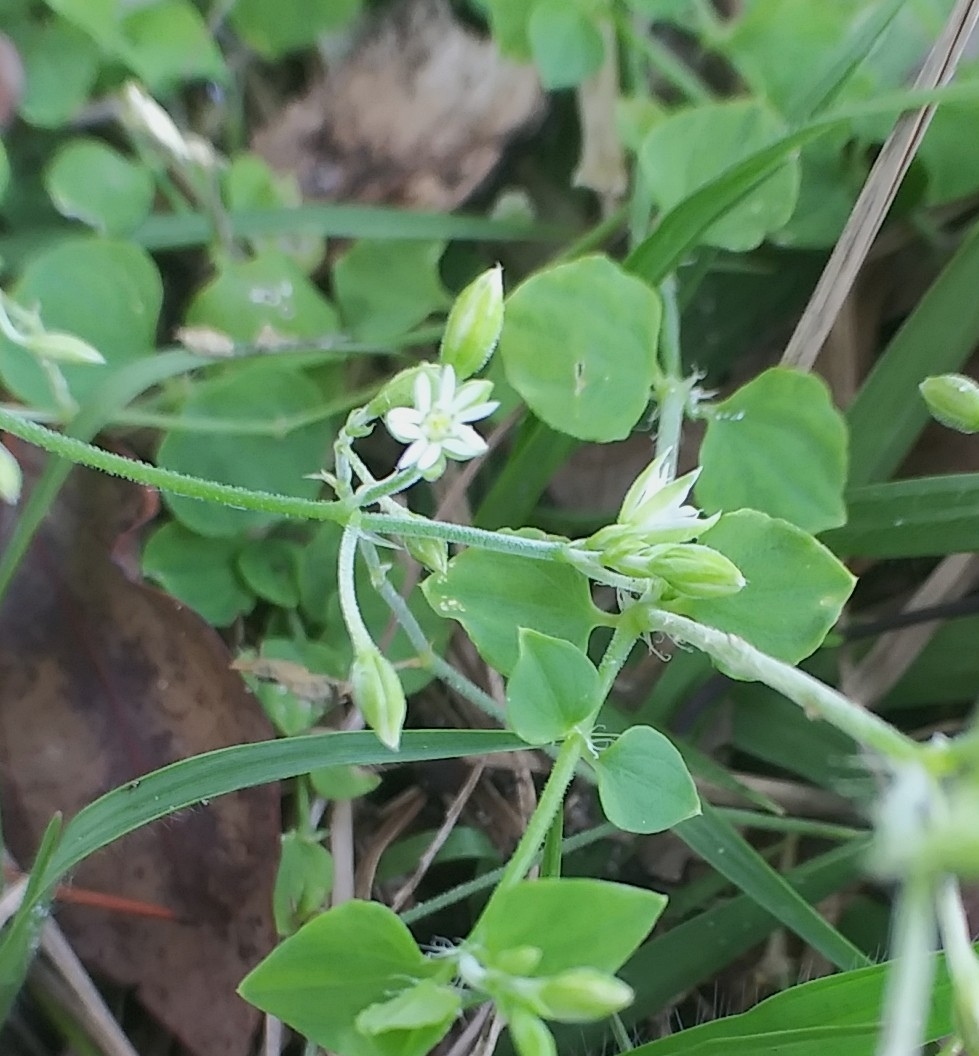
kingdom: Plantae
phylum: Tracheophyta
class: Magnoliopsida
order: Caryophyllales
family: Caryophyllaceae
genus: Drymaria
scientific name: Drymaria cordata
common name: Whitesnow
